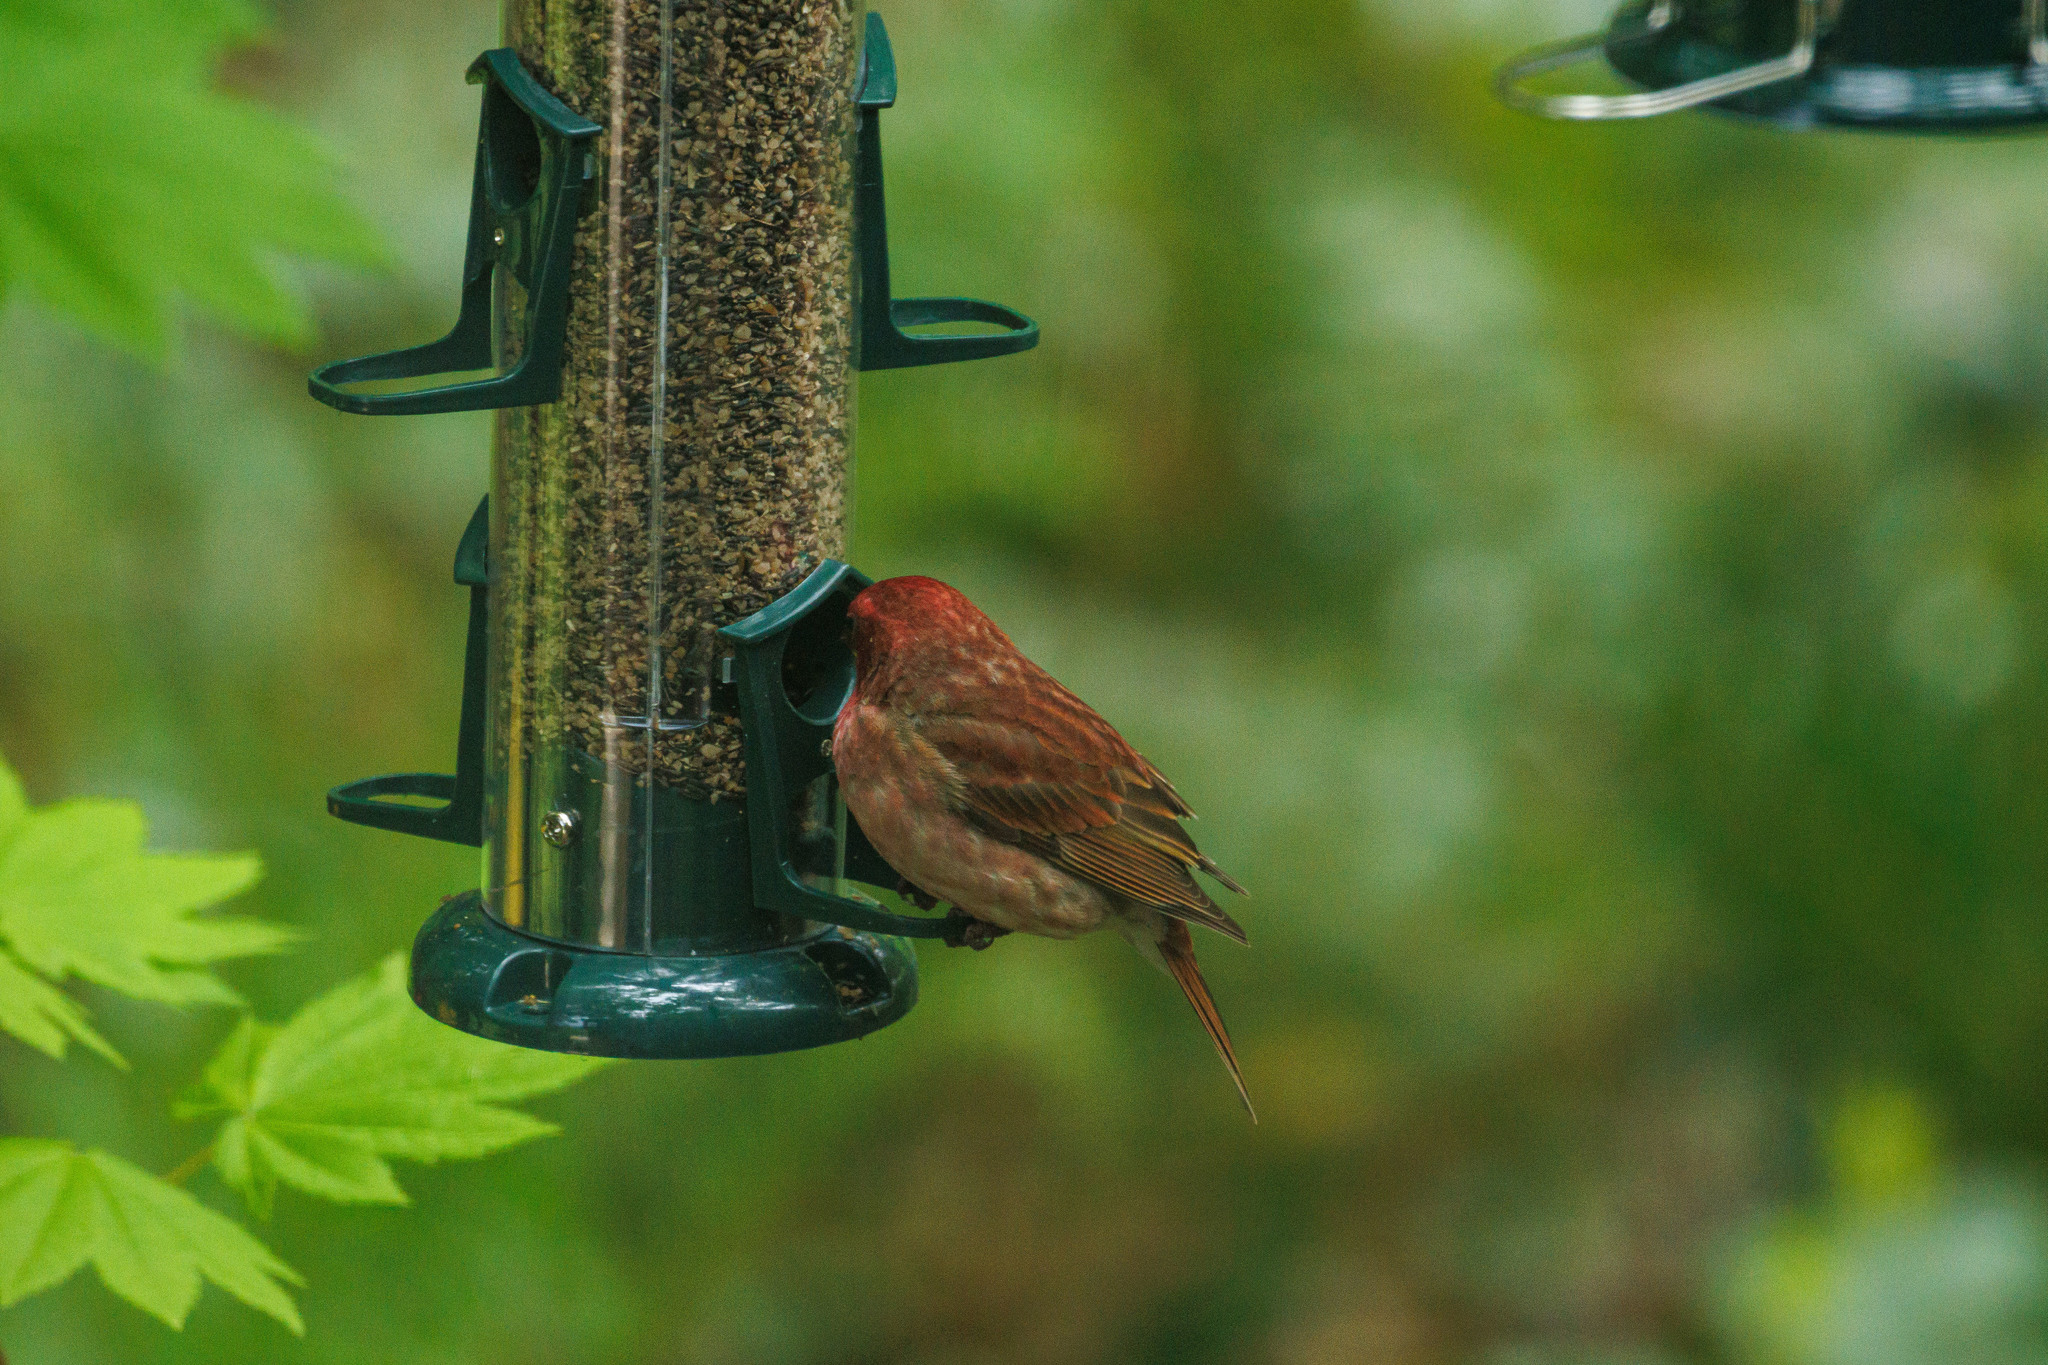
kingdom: Animalia
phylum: Chordata
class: Aves
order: Passeriformes
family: Fringillidae
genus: Haemorhous
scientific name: Haemorhous purpureus
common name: Purple finch
